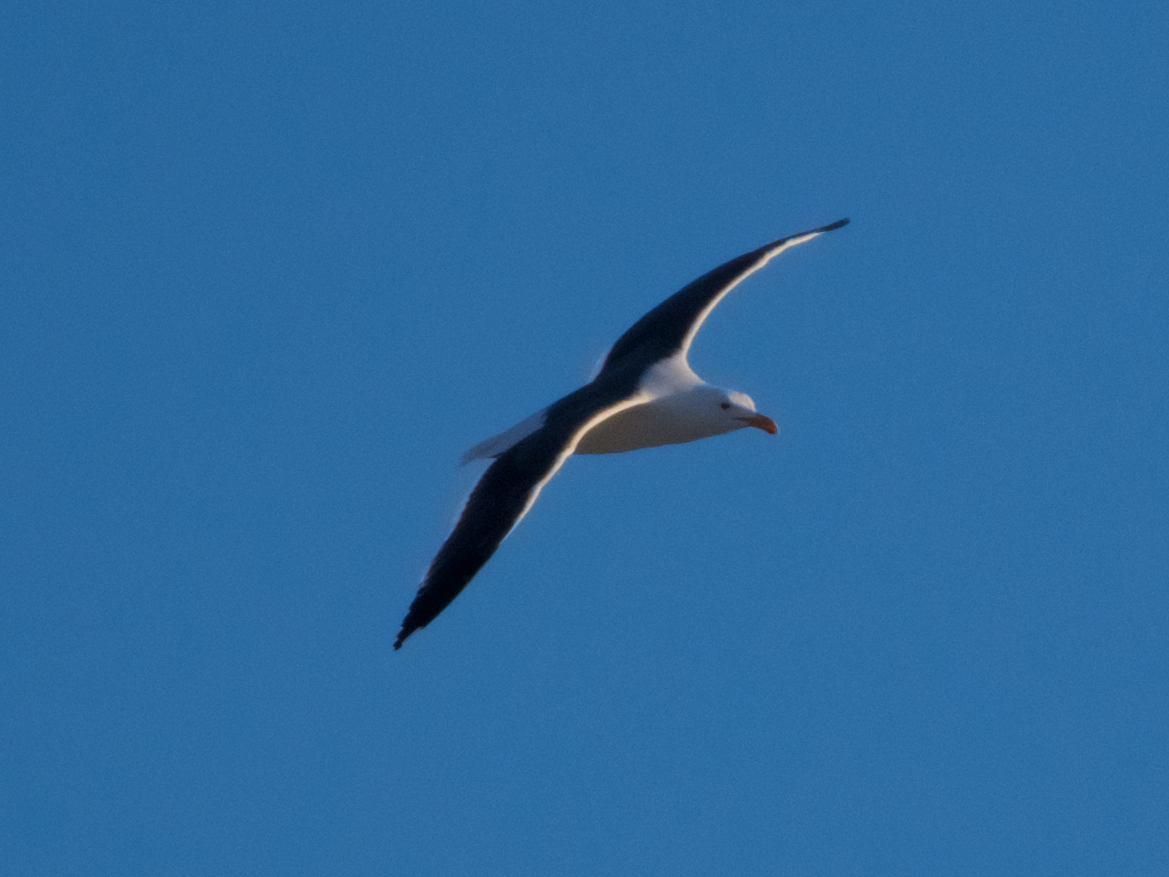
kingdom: Animalia
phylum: Chordata
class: Aves
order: Charadriiformes
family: Laridae
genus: Larus
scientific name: Larus occidentalis
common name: Western gull
